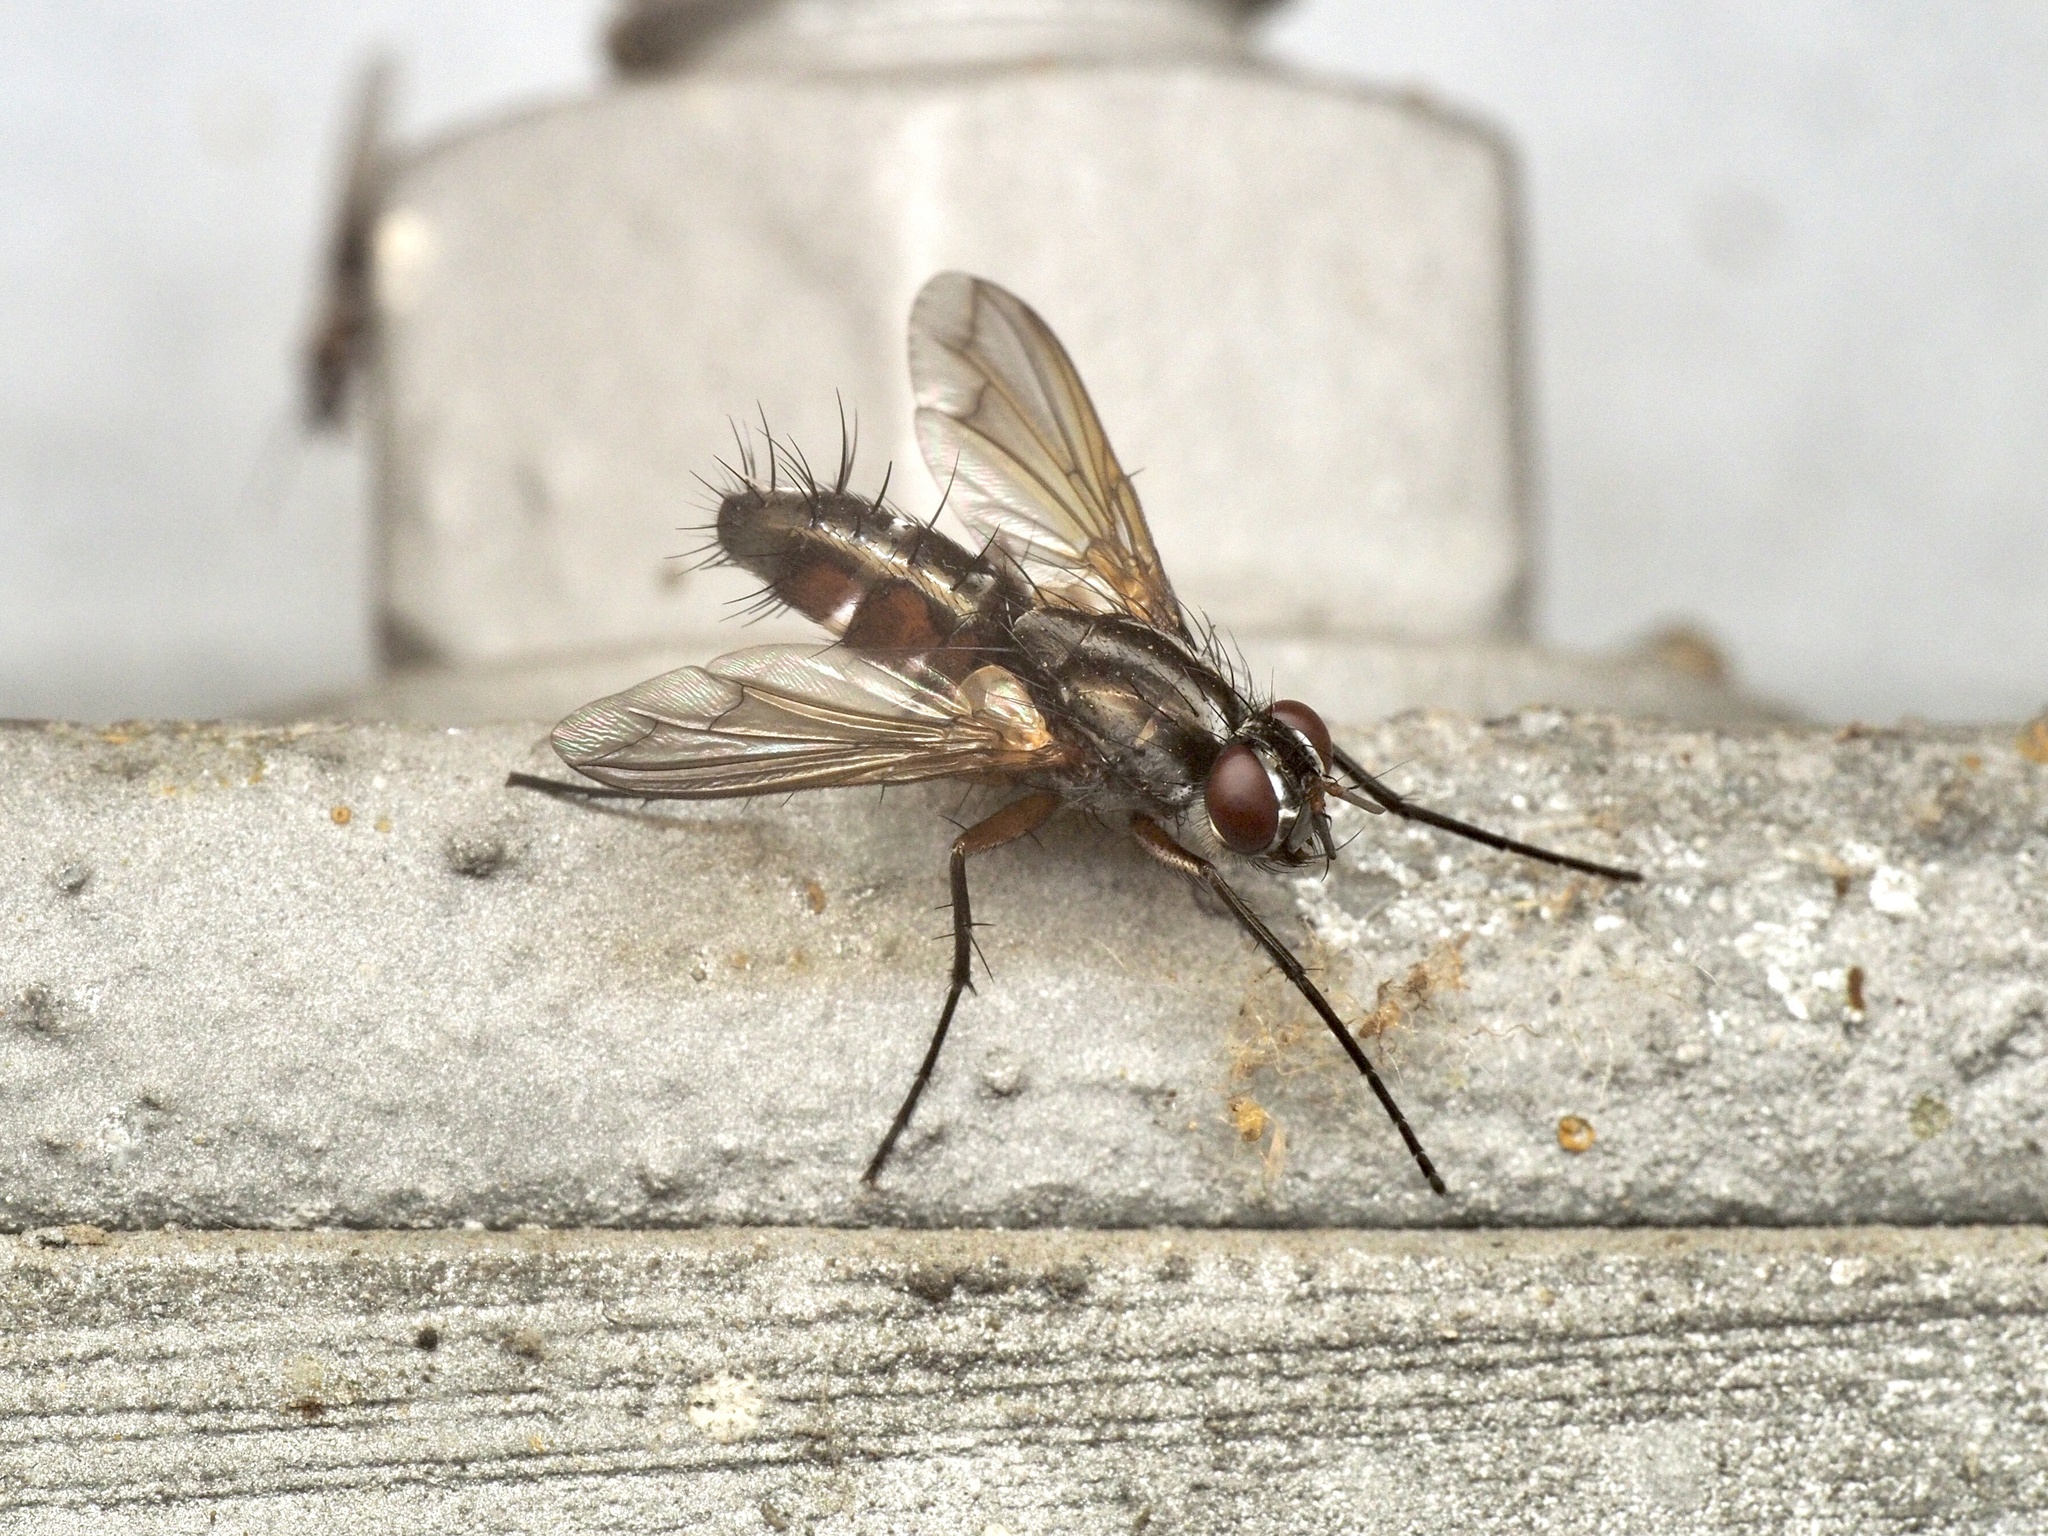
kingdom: Animalia
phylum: Arthropoda
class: Insecta
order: Diptera
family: Tachinidae
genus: Mintho
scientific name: Mintho rufiventris
